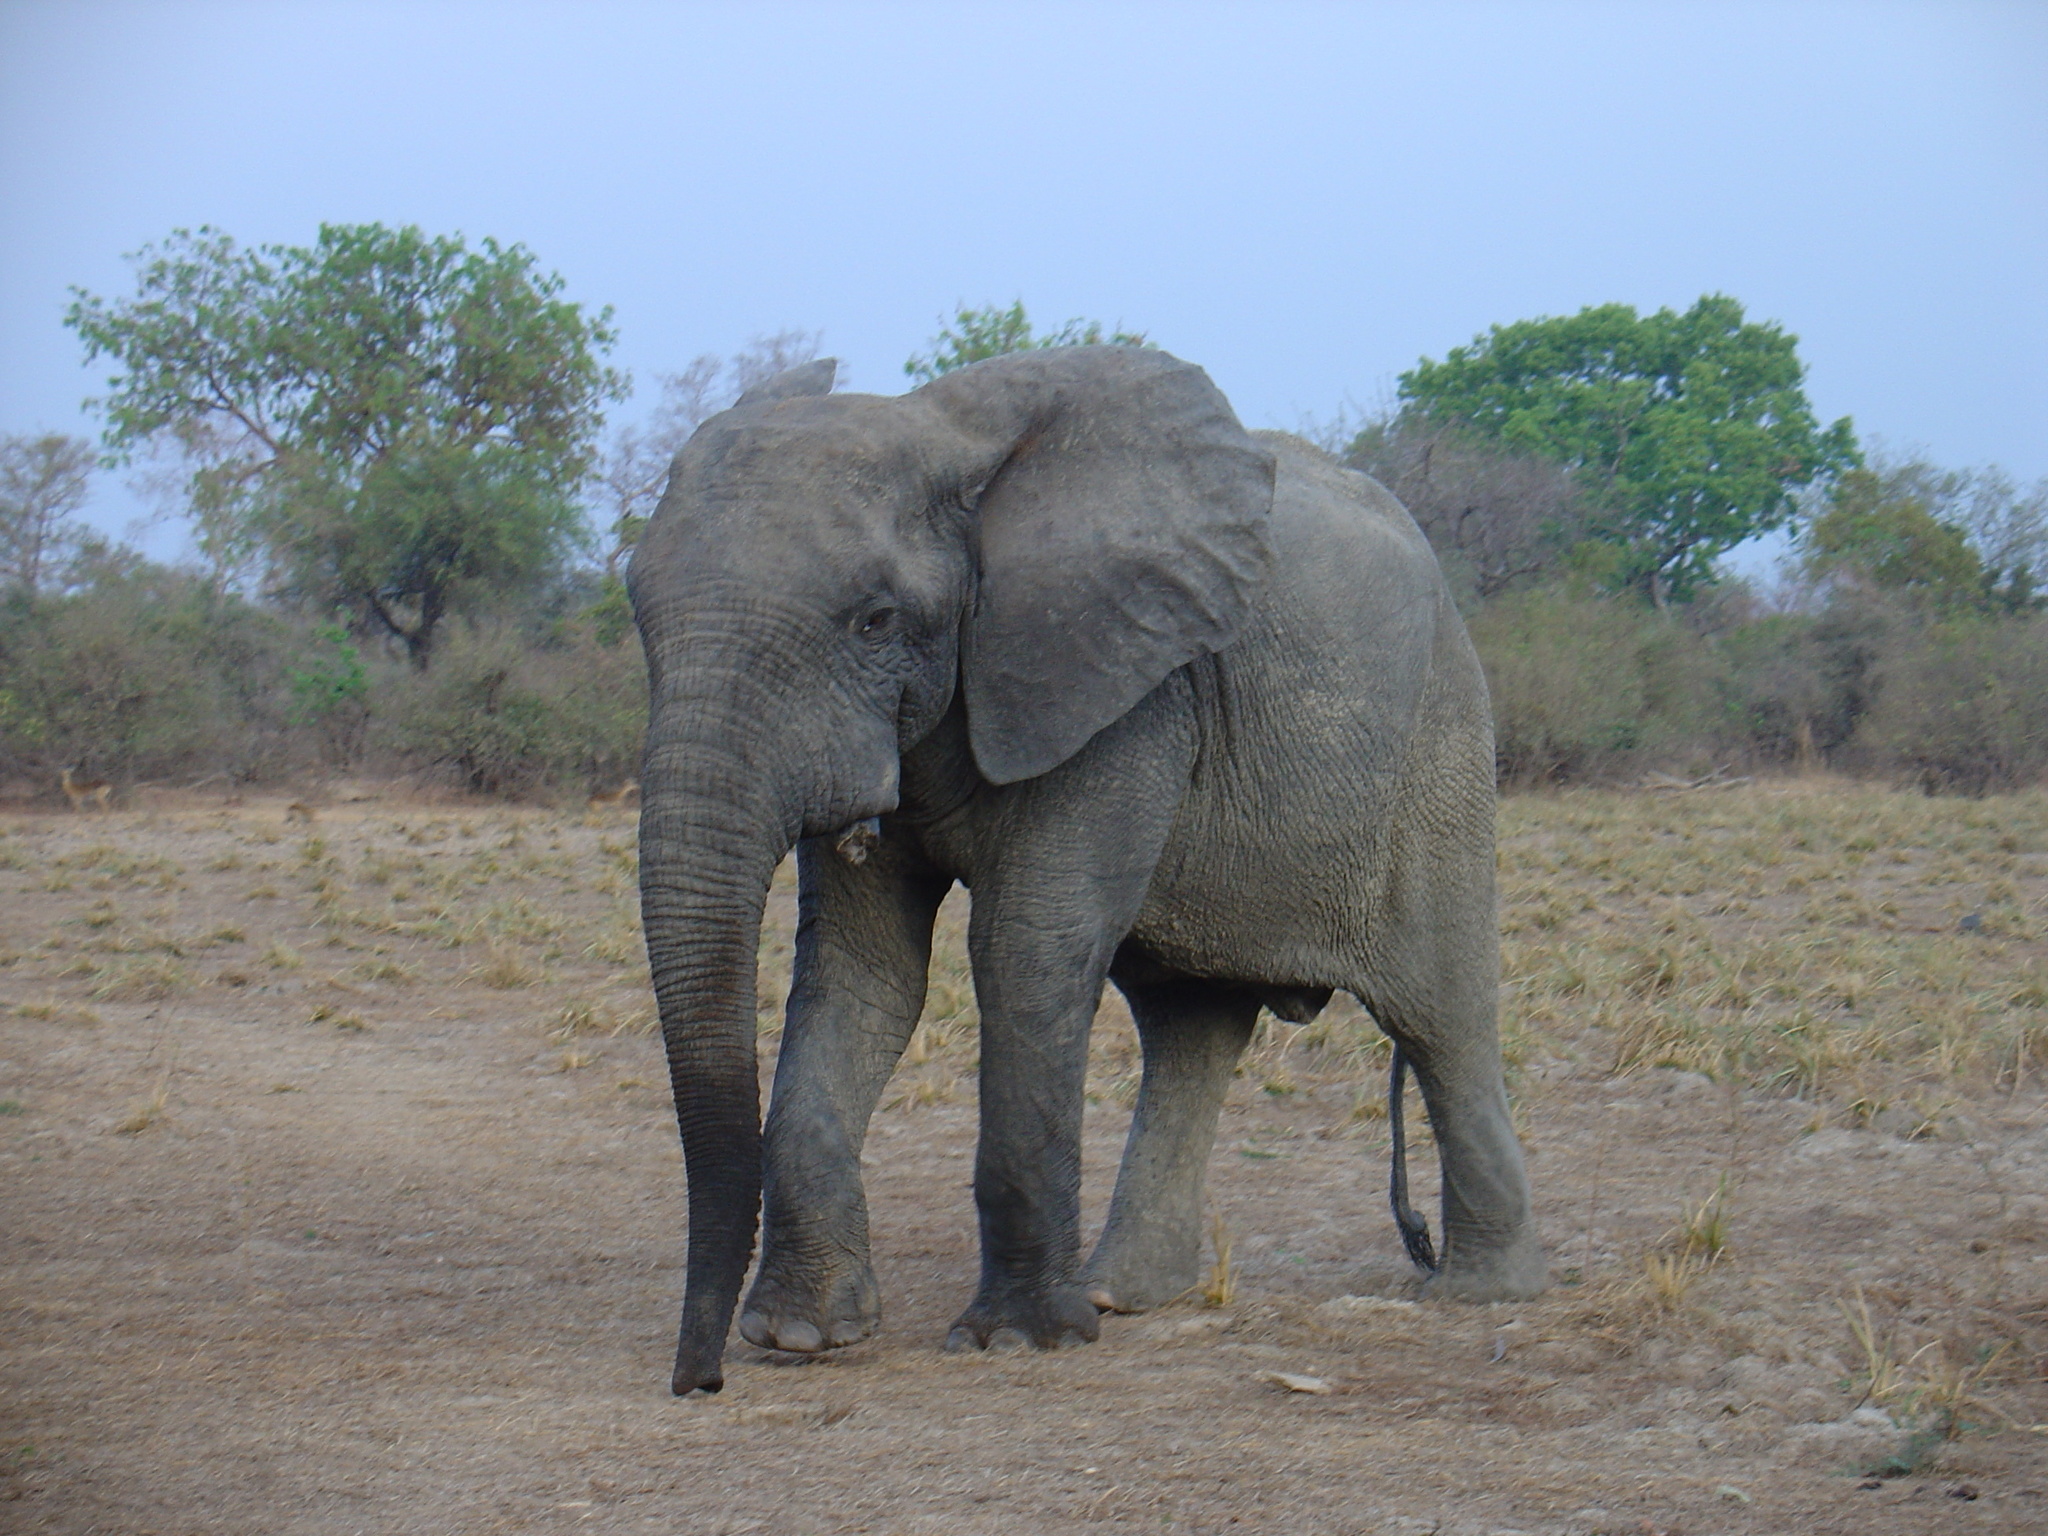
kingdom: Animalia
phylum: Chordata
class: Mammalia
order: Proboscidea
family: Elephantidae
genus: Loxodonta
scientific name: Loxodonta cyclotis
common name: African forest elephant
